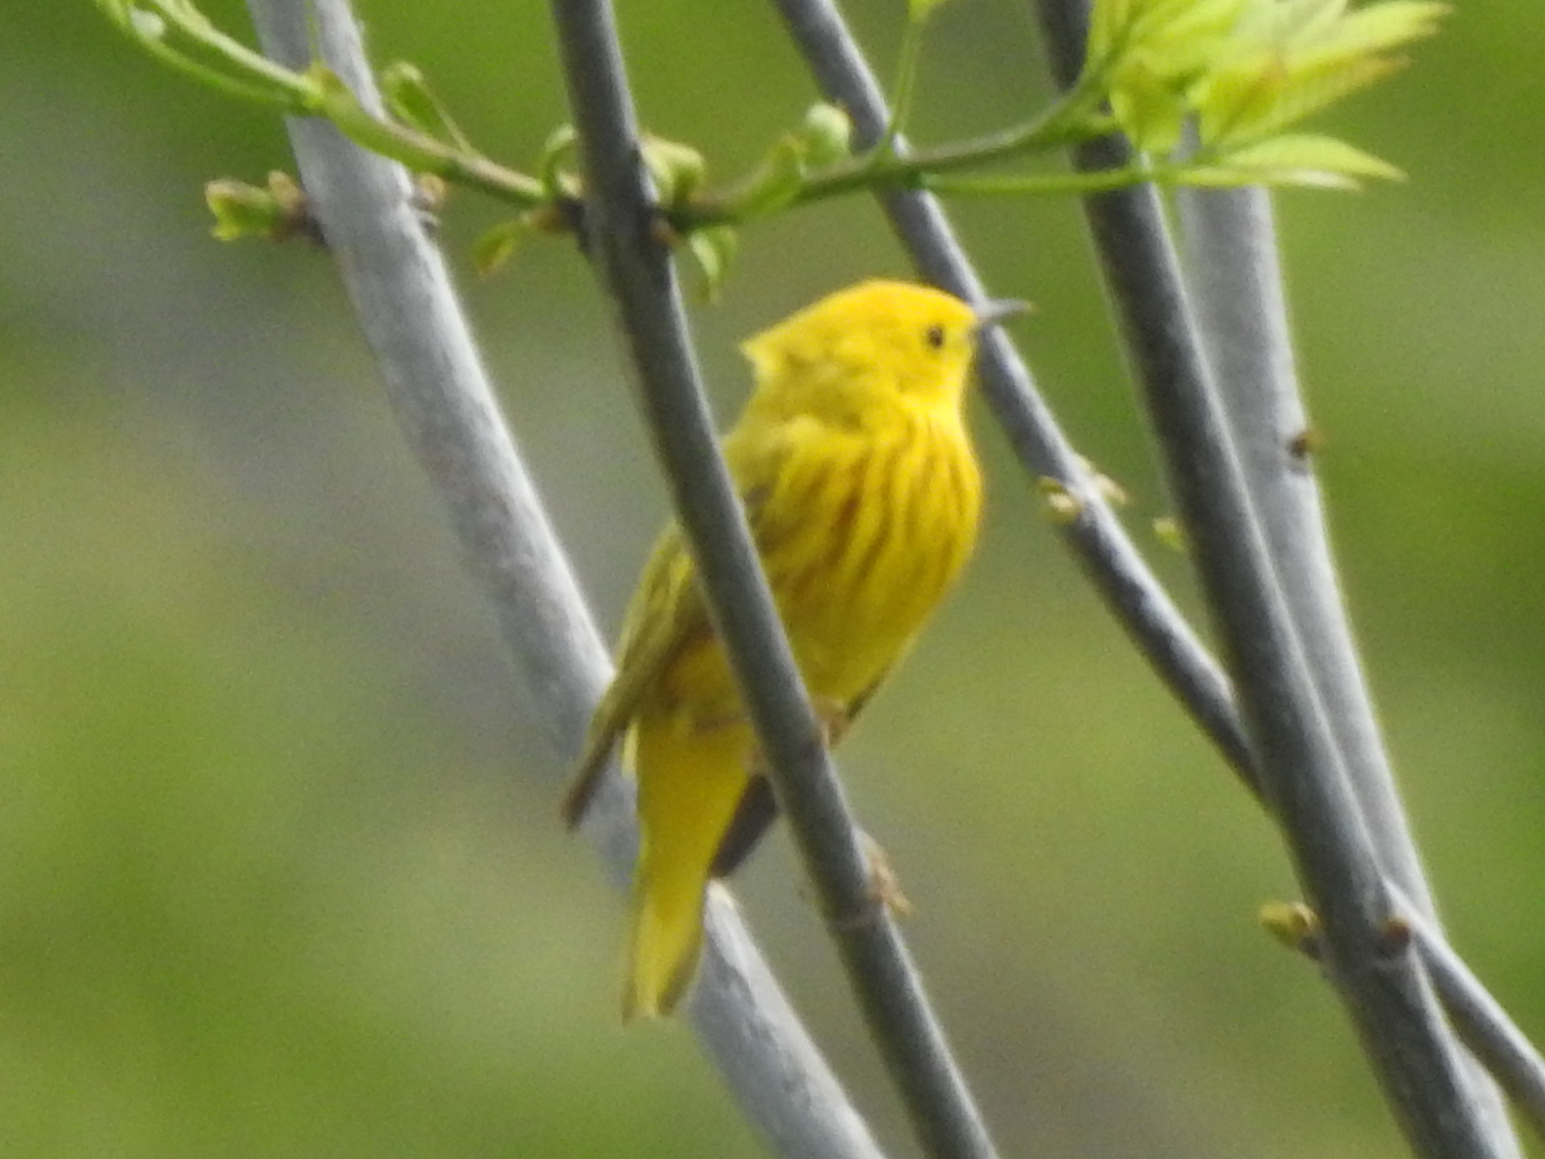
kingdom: Animalia
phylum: Chordata
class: Aves
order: Passeriformes
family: Parulidae
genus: Setophaga
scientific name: Setophaga petechia
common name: Yellow warbler
